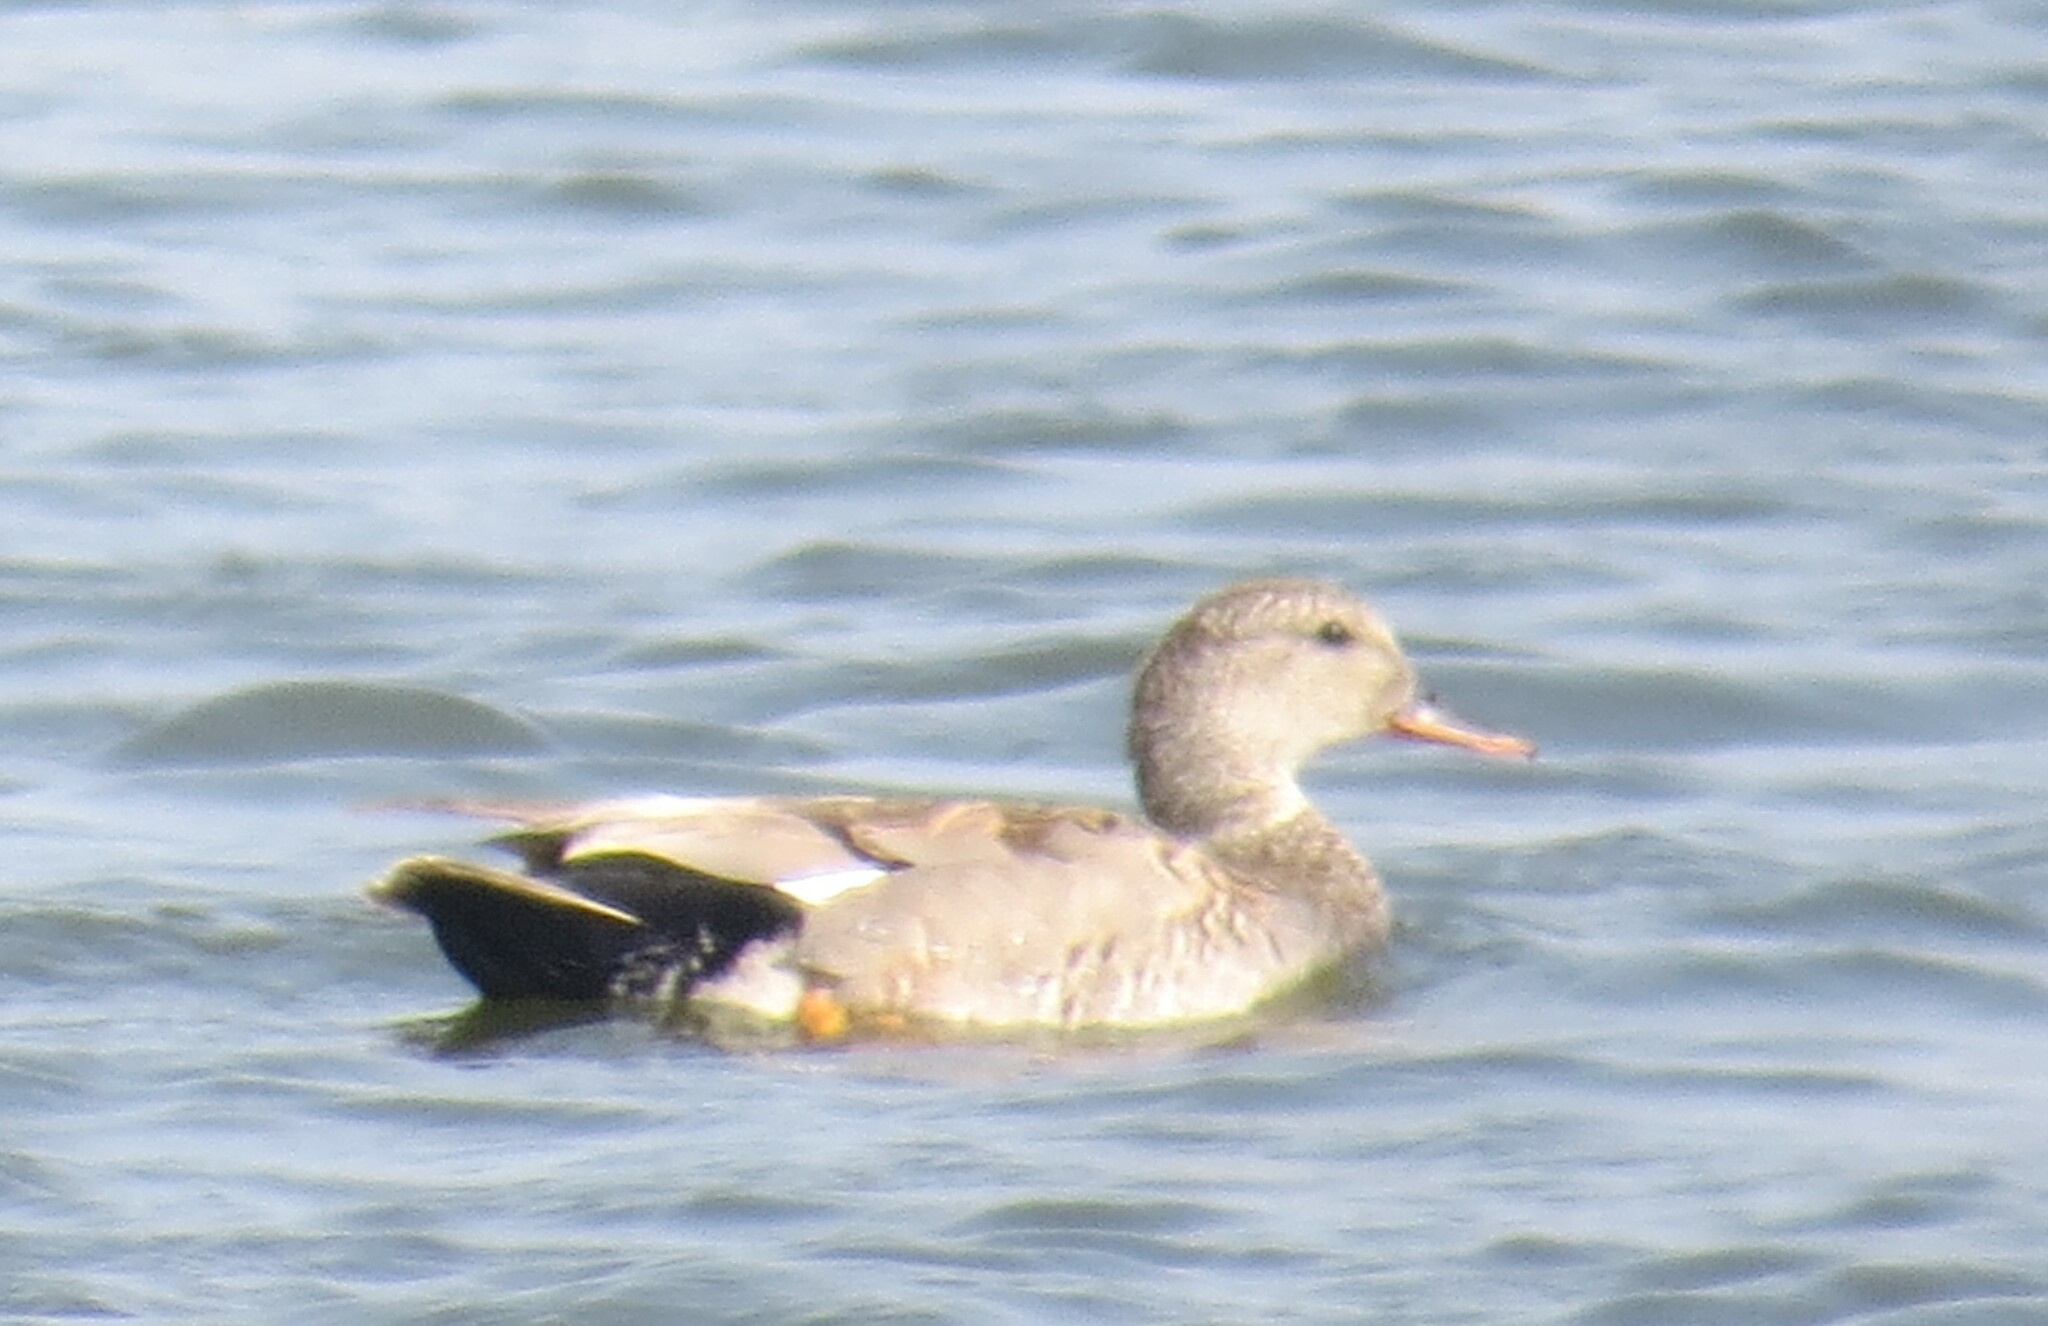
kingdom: Animalia
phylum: Chordata
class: Aves
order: Anseriformes
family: Anatidae
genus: Mareca
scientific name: Mareca strepera
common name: Gadwall
